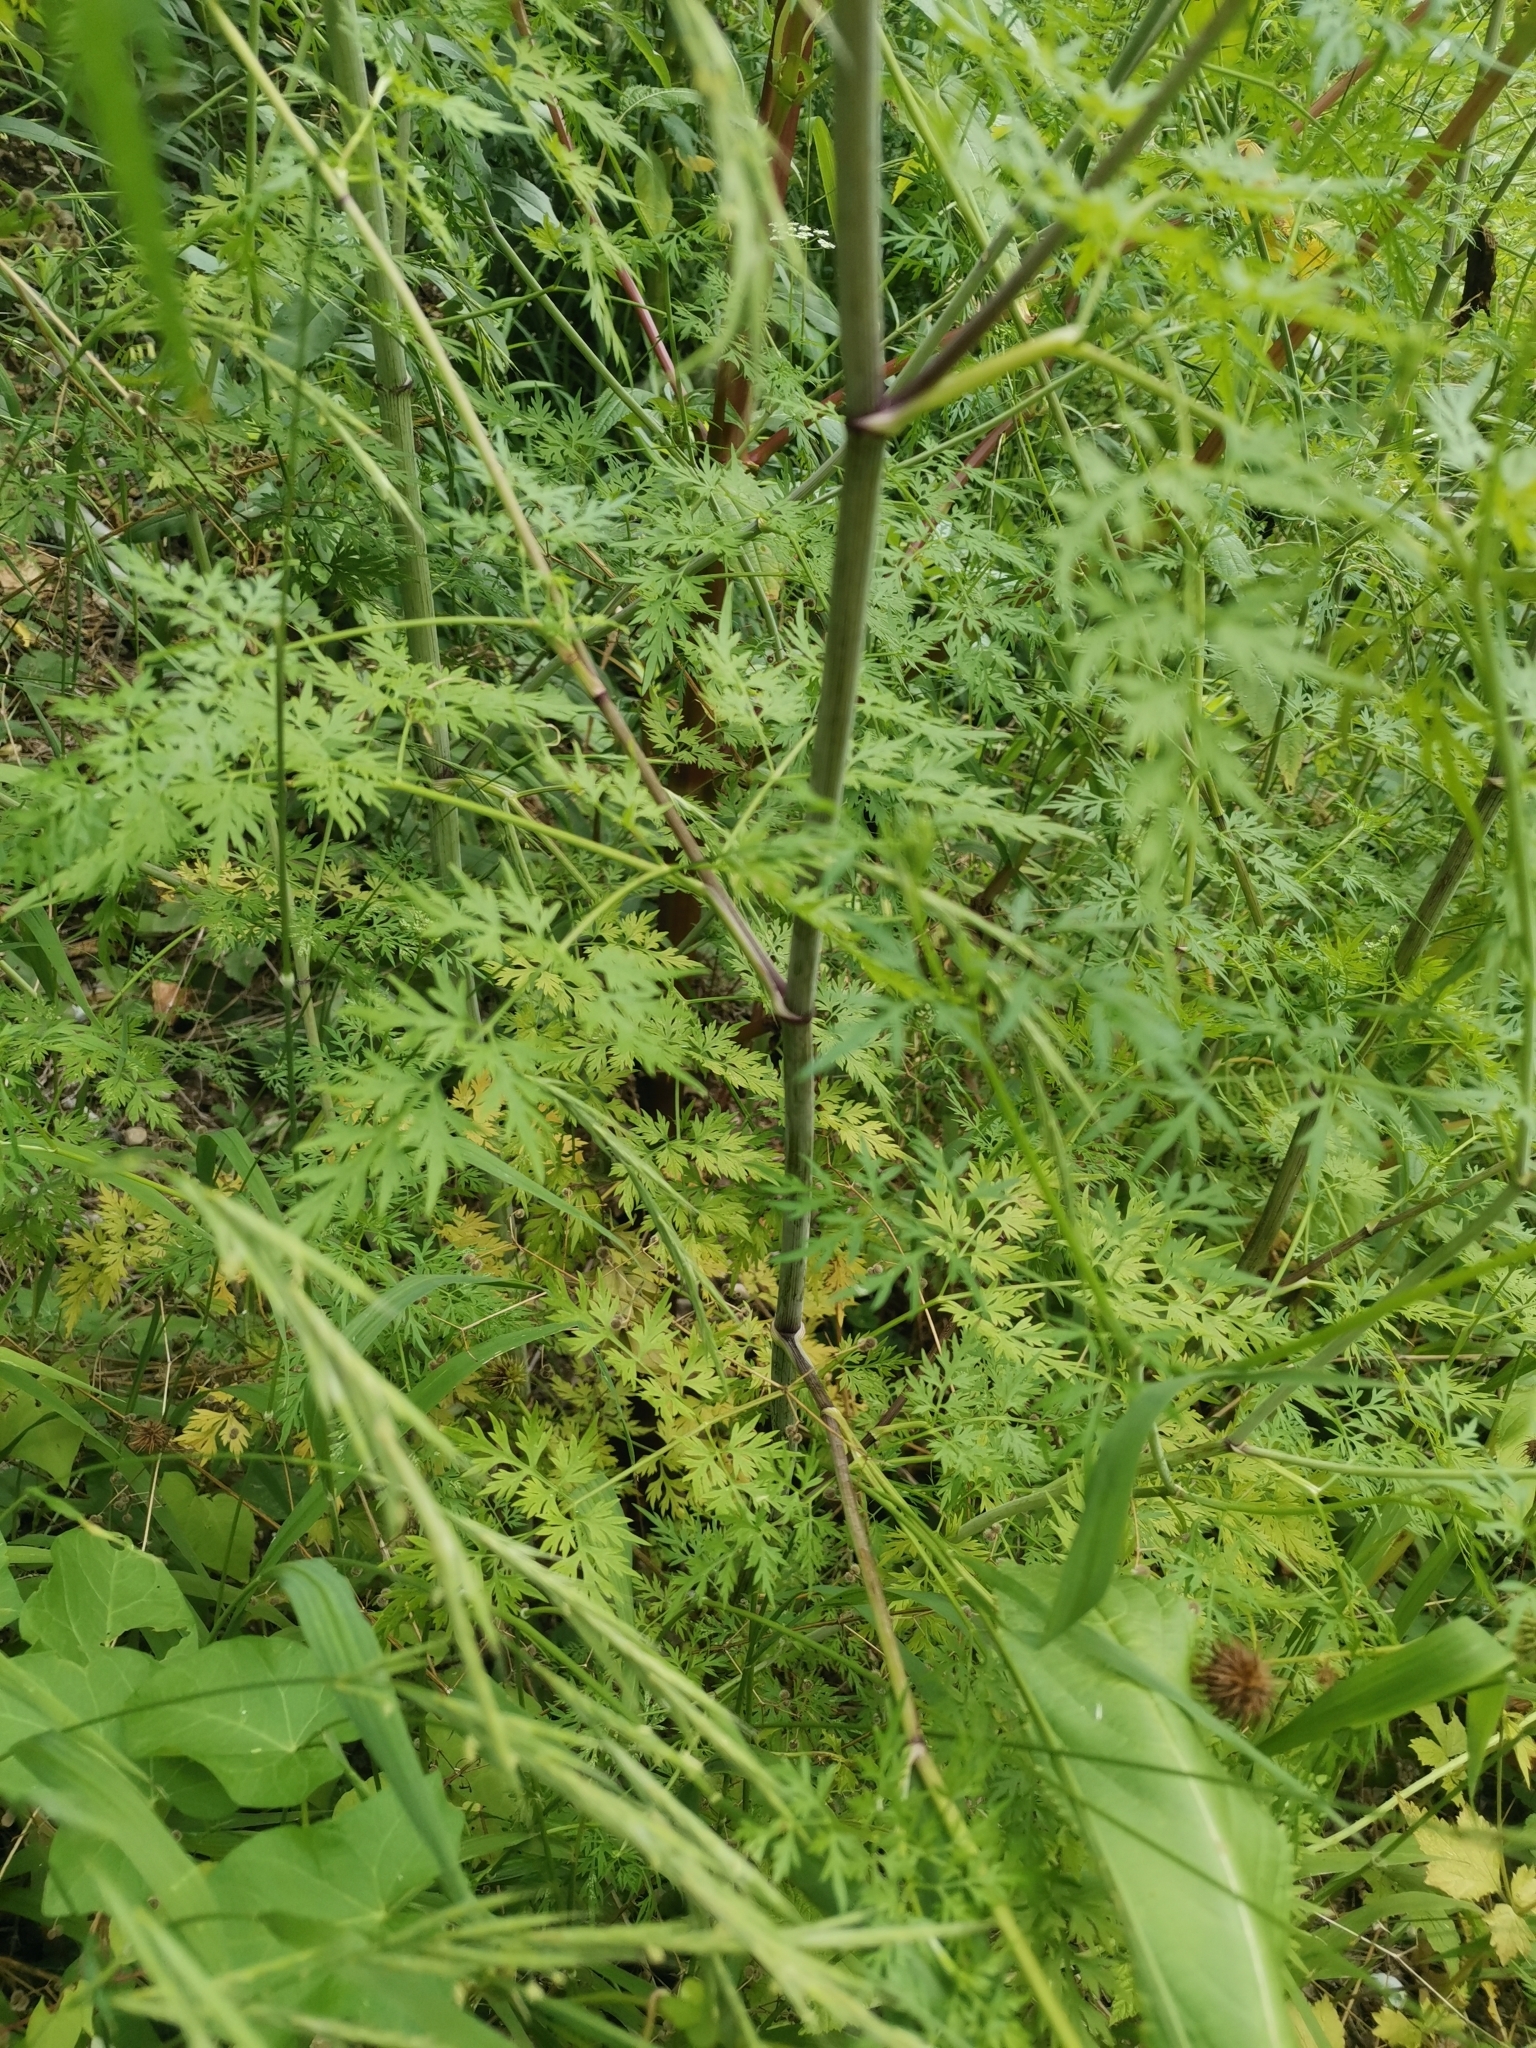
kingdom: Plantae
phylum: Tracheophyta
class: Magnoliopsida
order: Apiales
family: Apiaceae
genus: Aethusa
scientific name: Aethusa cynapium
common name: Fool's parsley
